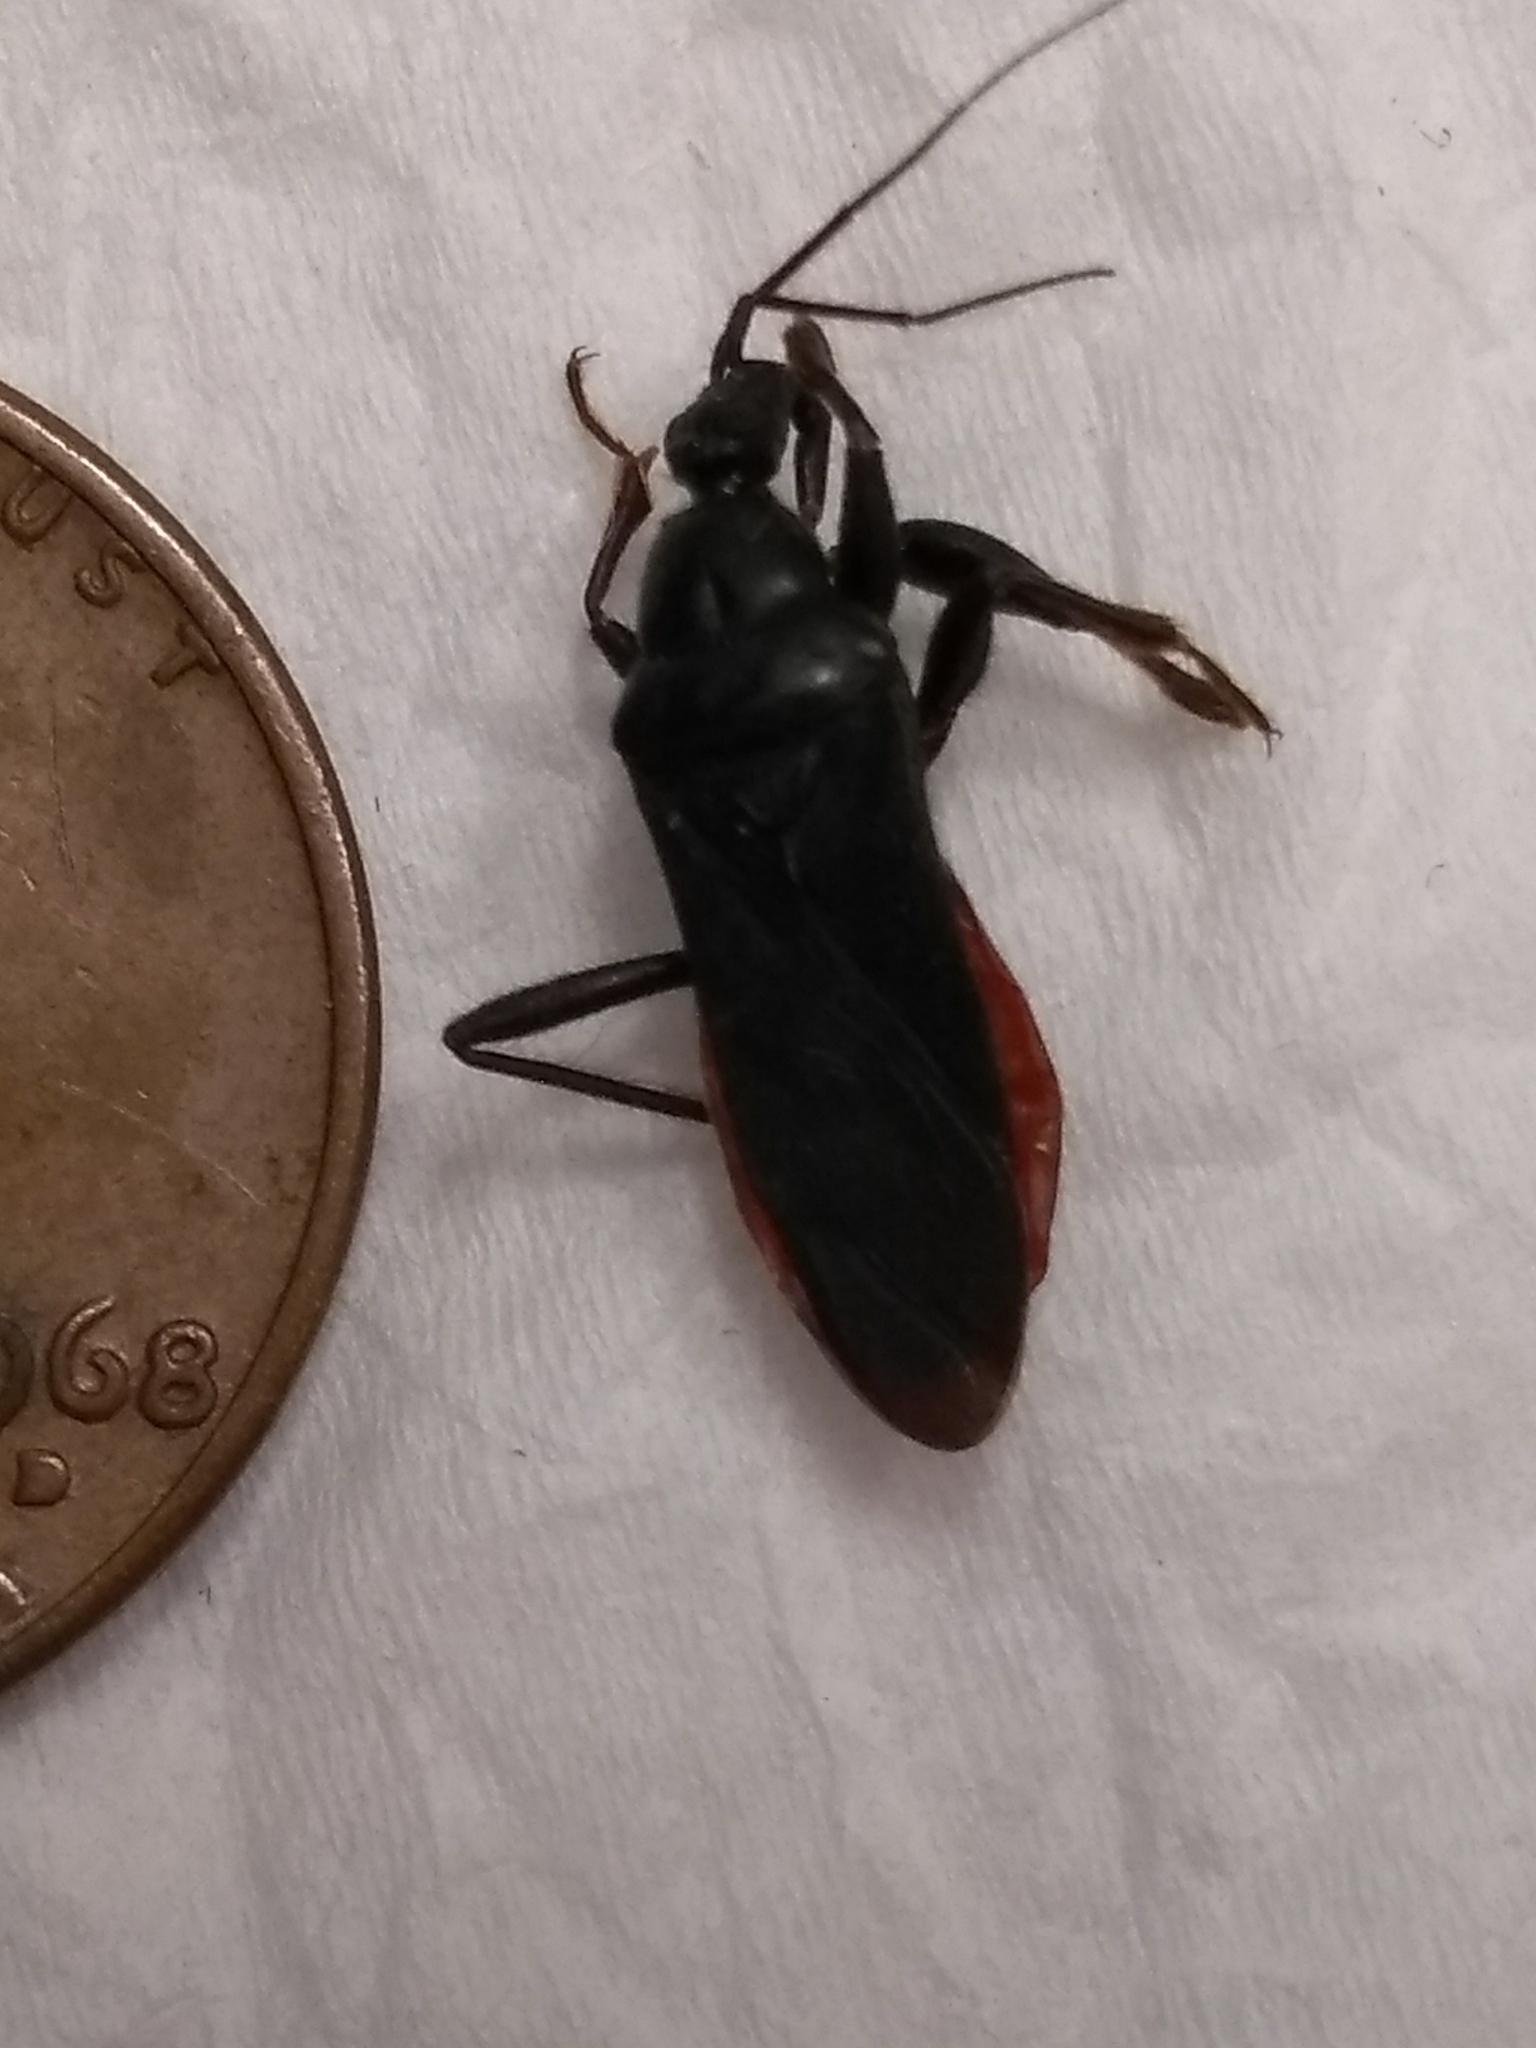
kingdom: Animalia
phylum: Arthropoda
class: Insecta
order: Hemiptera
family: Reduviidae
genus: Melanolestes
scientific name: Melanolestes picipes
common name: Assassin bug
